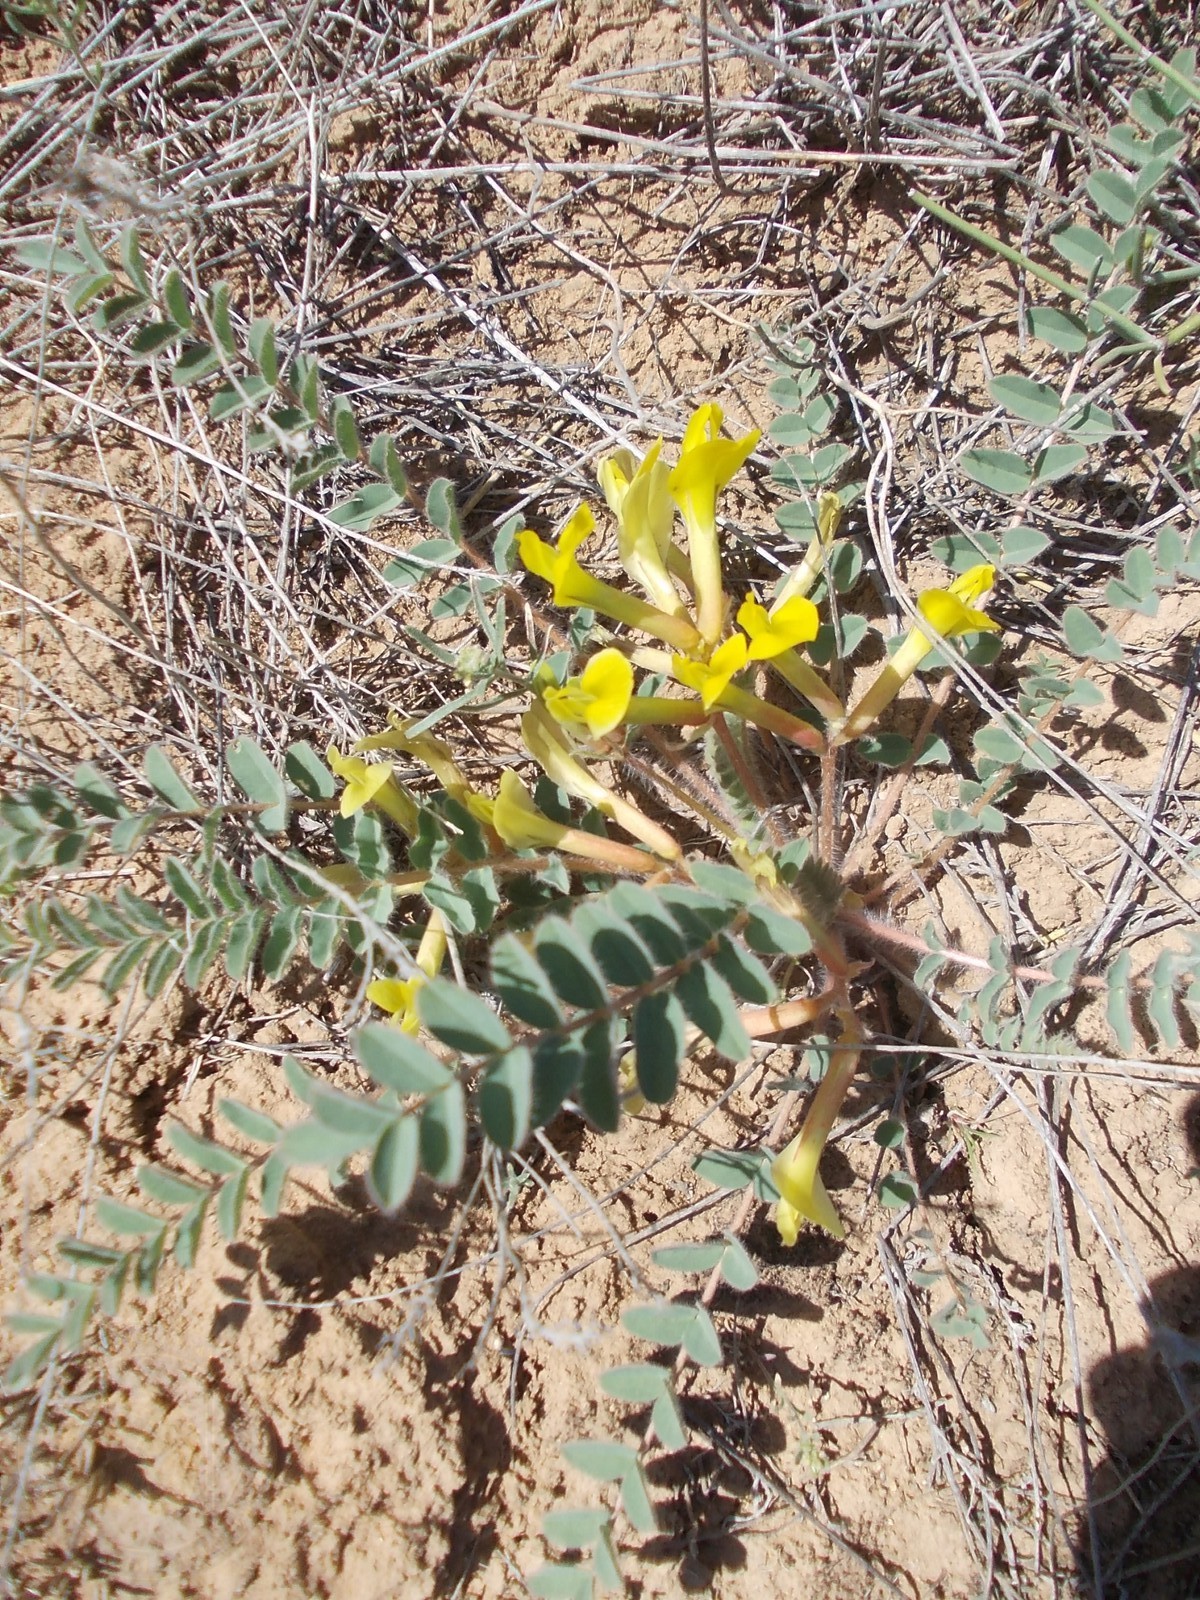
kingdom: Plantae
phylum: Tracheophyta
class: Magnoliopsida
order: Fabales
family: Fabaceae
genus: Astragalus
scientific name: Astragalus longipetalus
